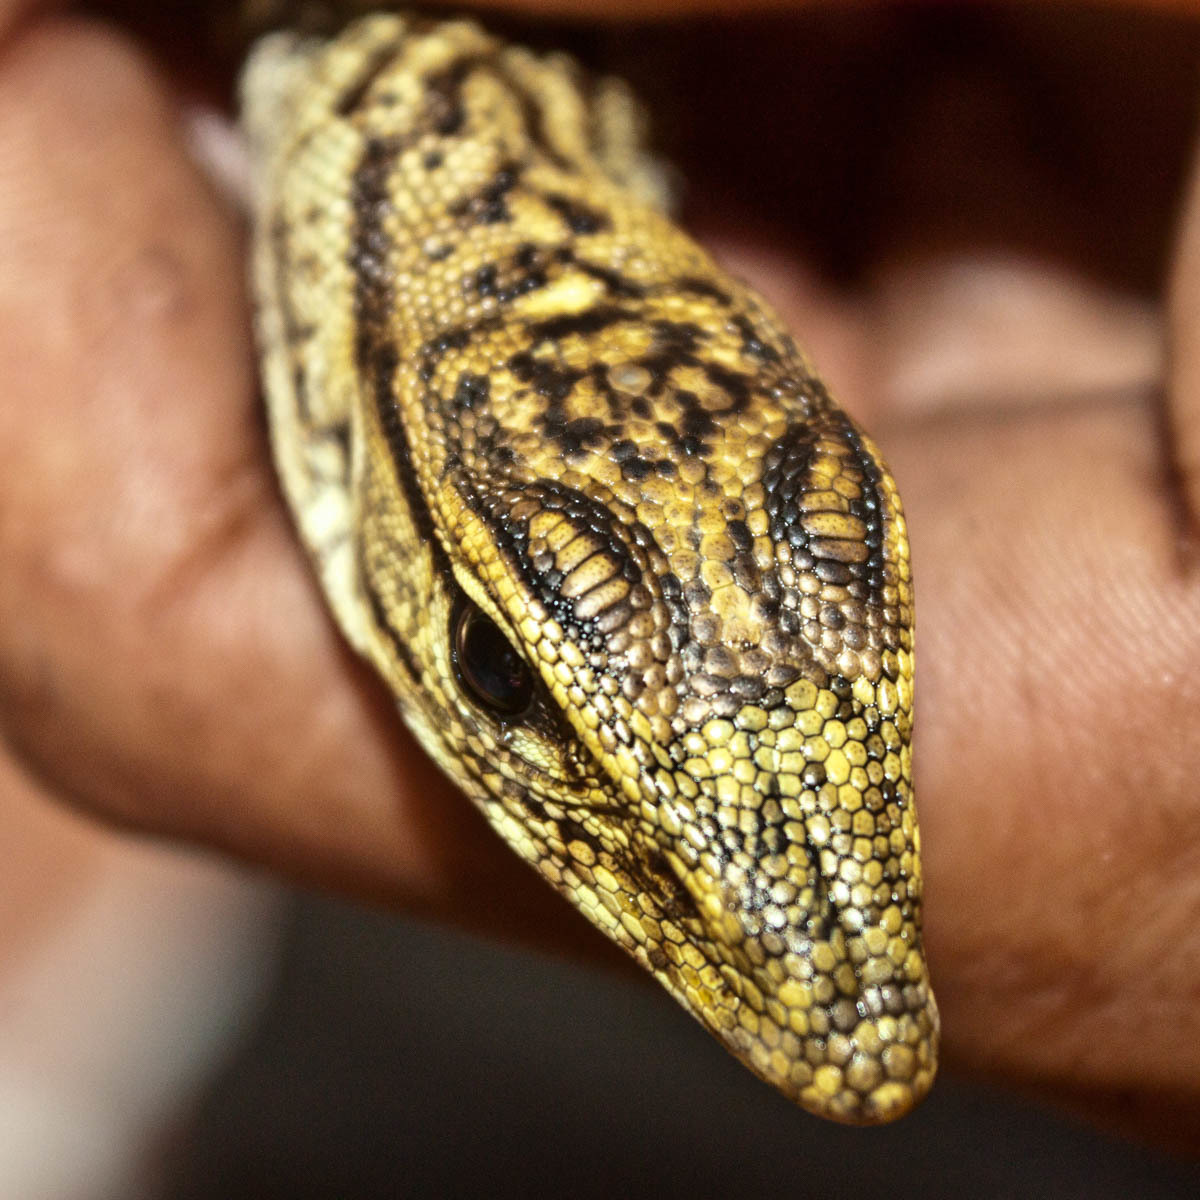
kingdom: Animalia
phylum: Chordata
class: Squamata
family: Varanidae
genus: Varanus
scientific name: Varanus nebulosus
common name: Clouded monitor
